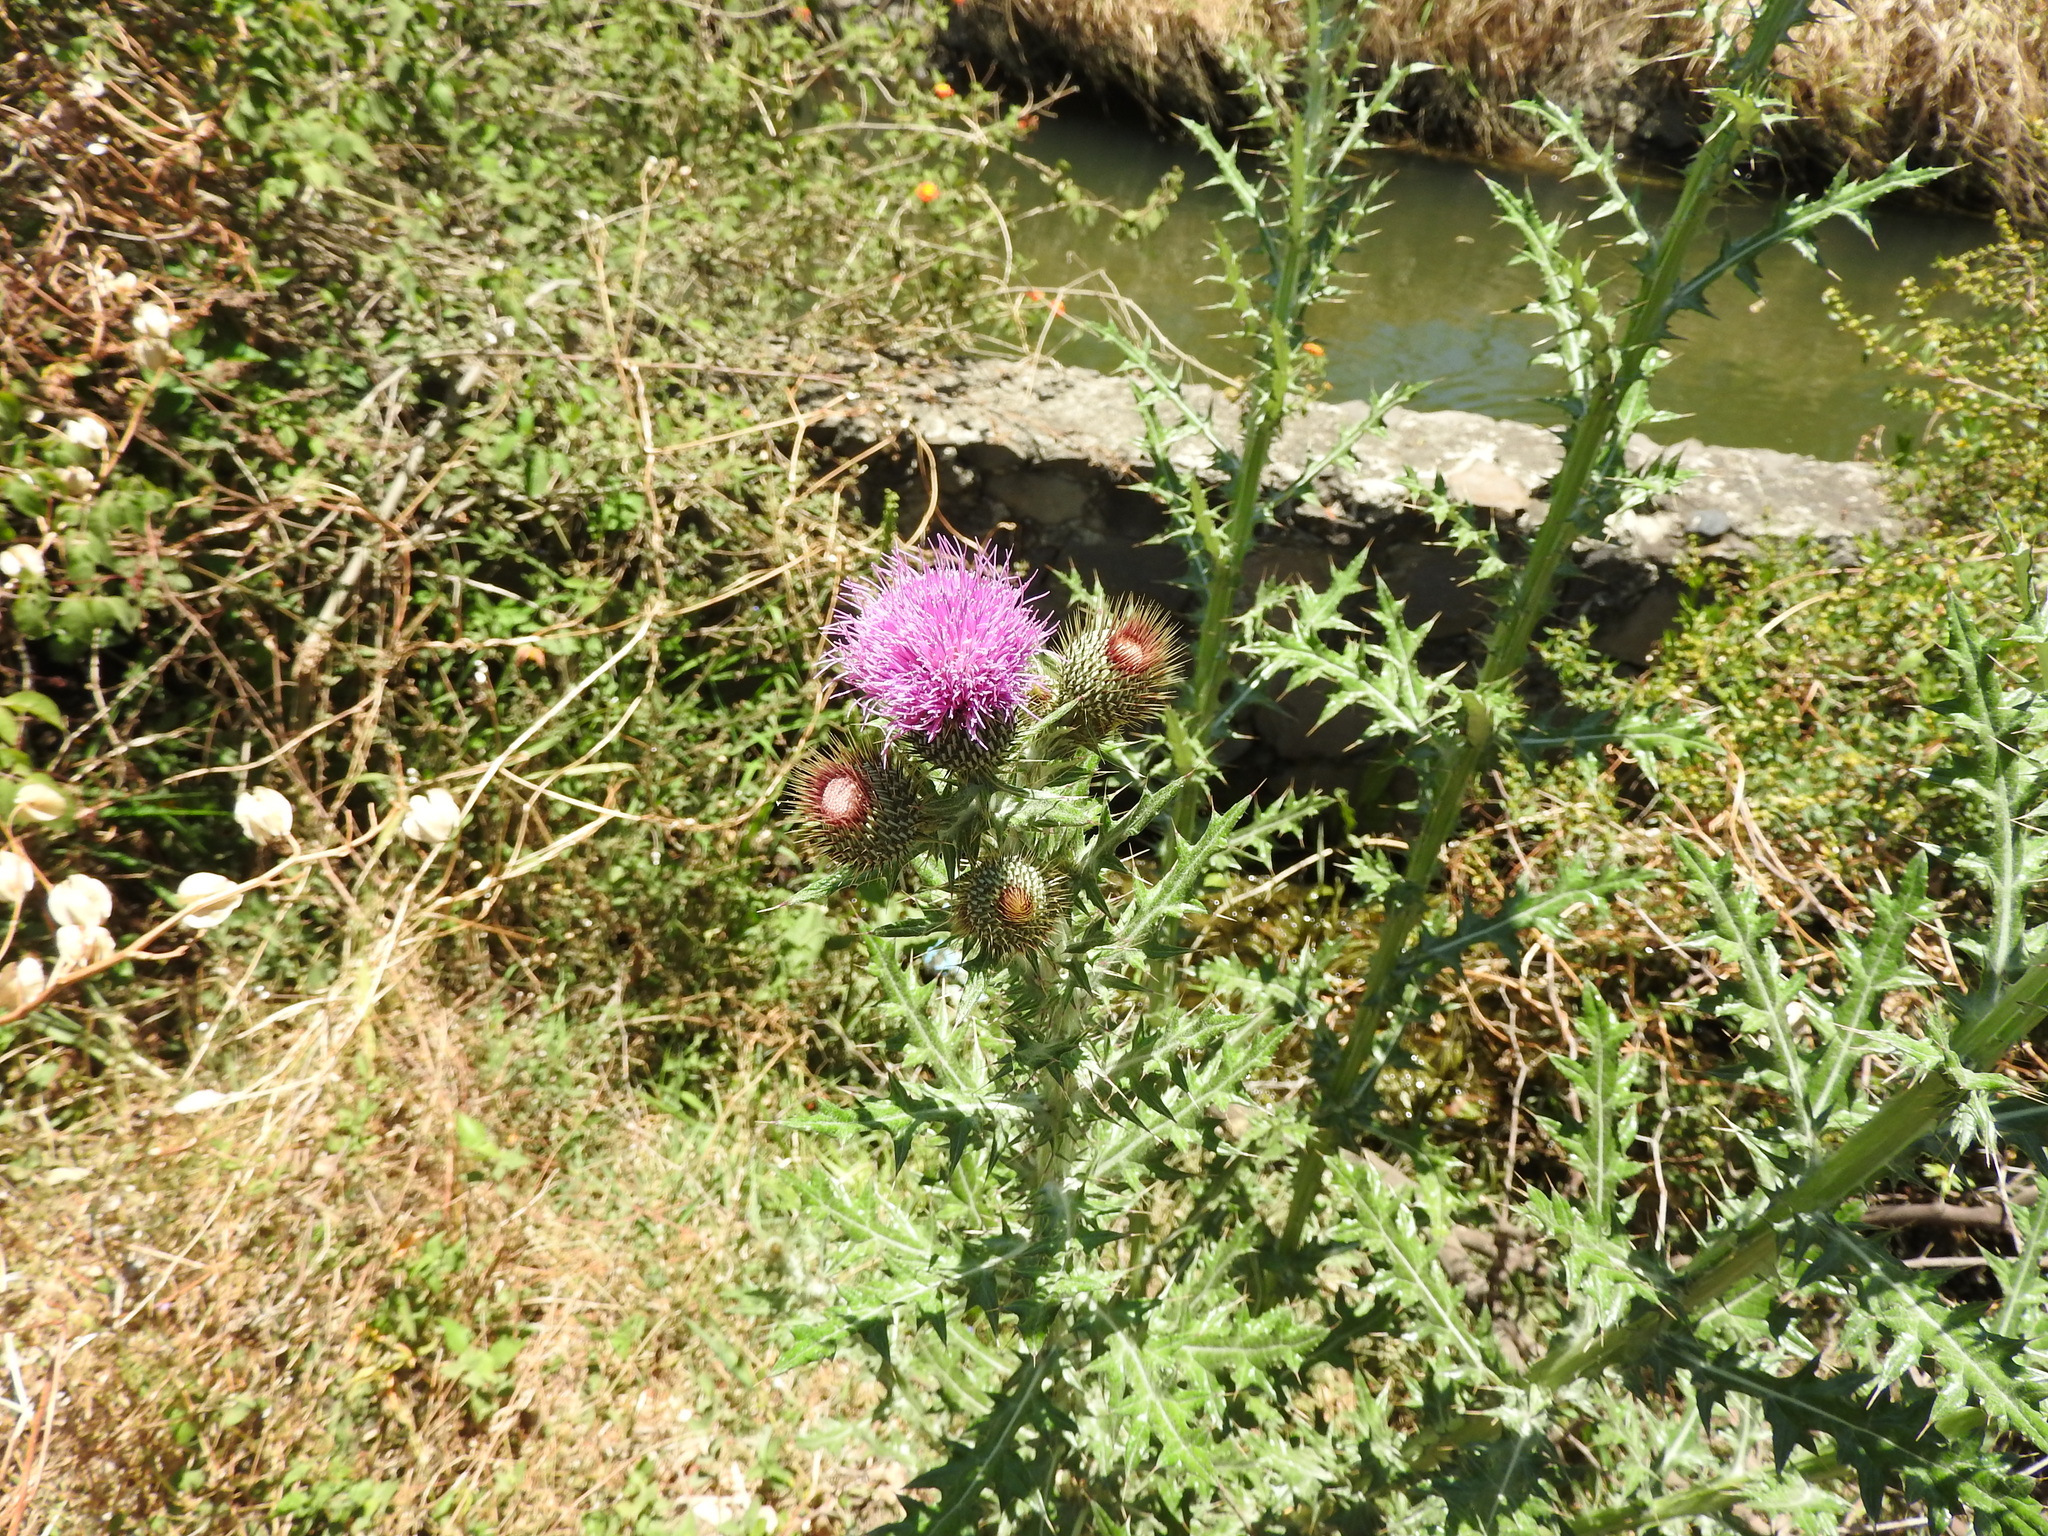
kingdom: Plantae
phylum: Tracheophyta
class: Magnoliopsida
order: Asterales
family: Asteraceae
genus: Cirsium
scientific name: Cirsium rhaphilepis
